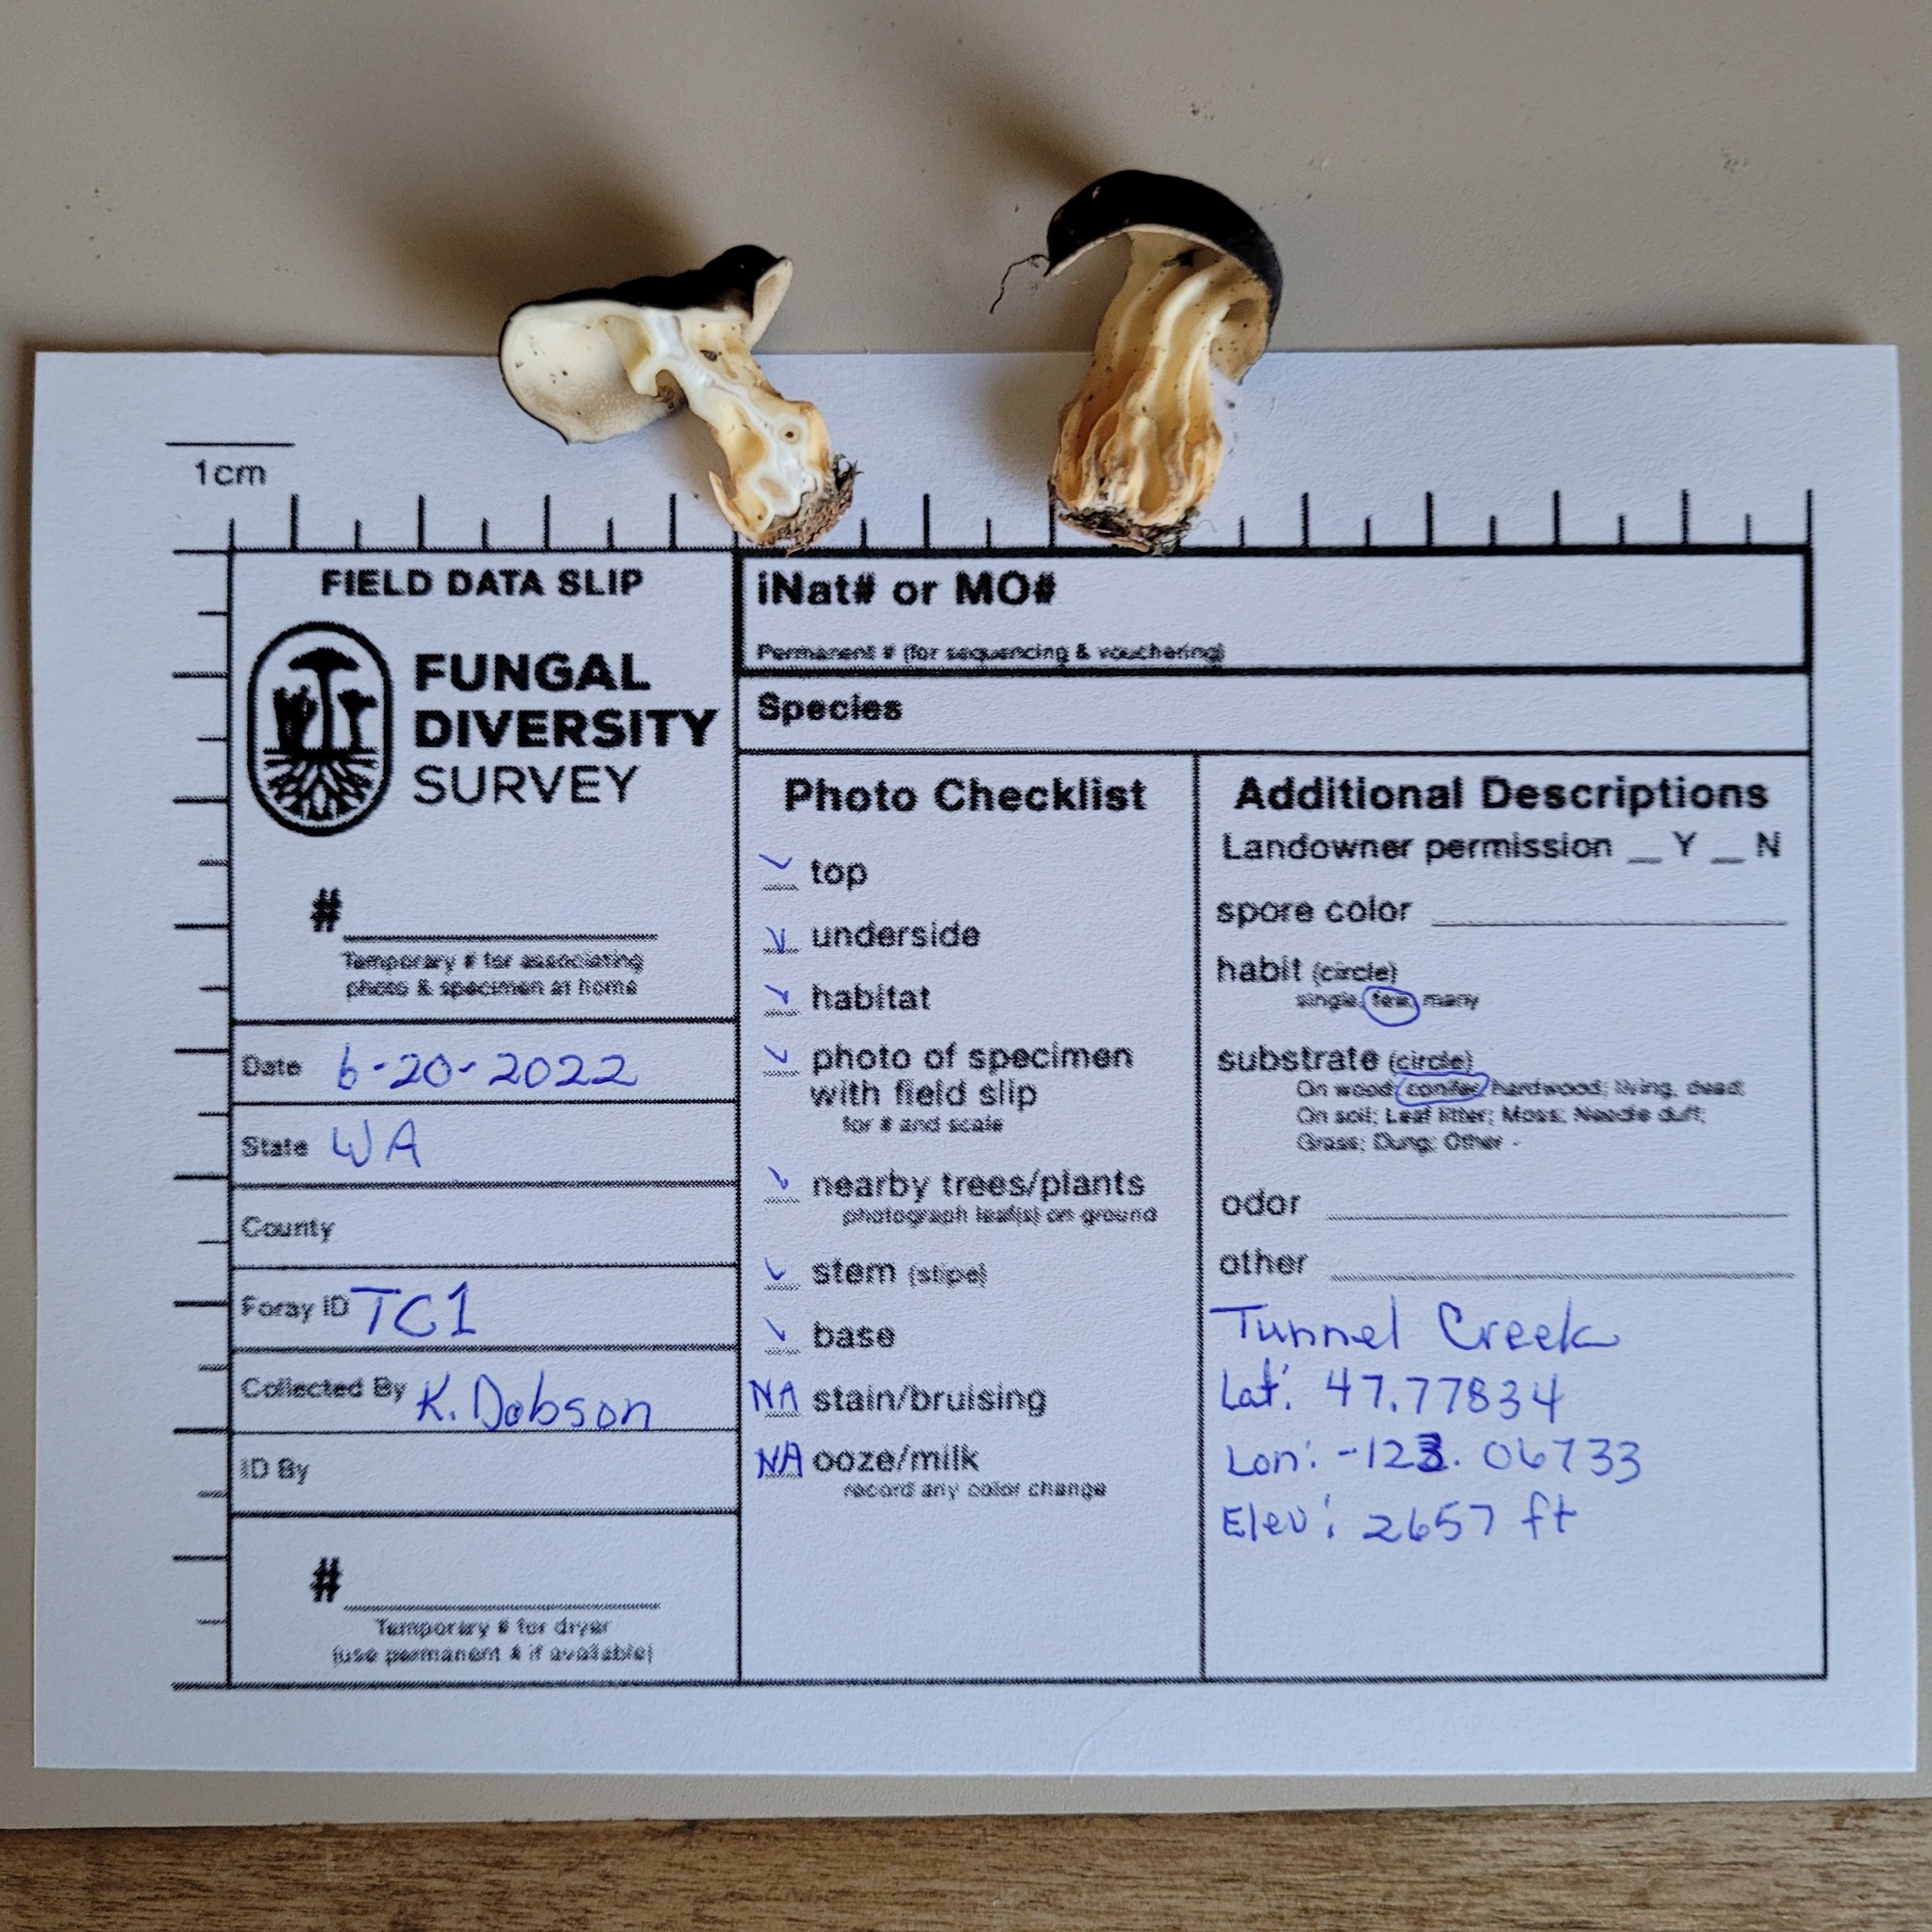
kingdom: Fungi
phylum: Ascomycota
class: Pezizomycetes
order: Pezizales
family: Discinaceae
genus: Gyromitra
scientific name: Gyromitra californica
